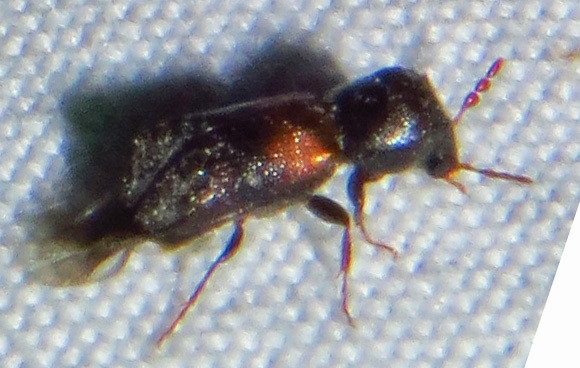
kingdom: Animalia
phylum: Arthropoda
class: Insecta
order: Coleoptera
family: Bostrichidae
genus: Xylobiops
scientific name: Xylobiops basilaris
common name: Red-shouldered bostrichid
